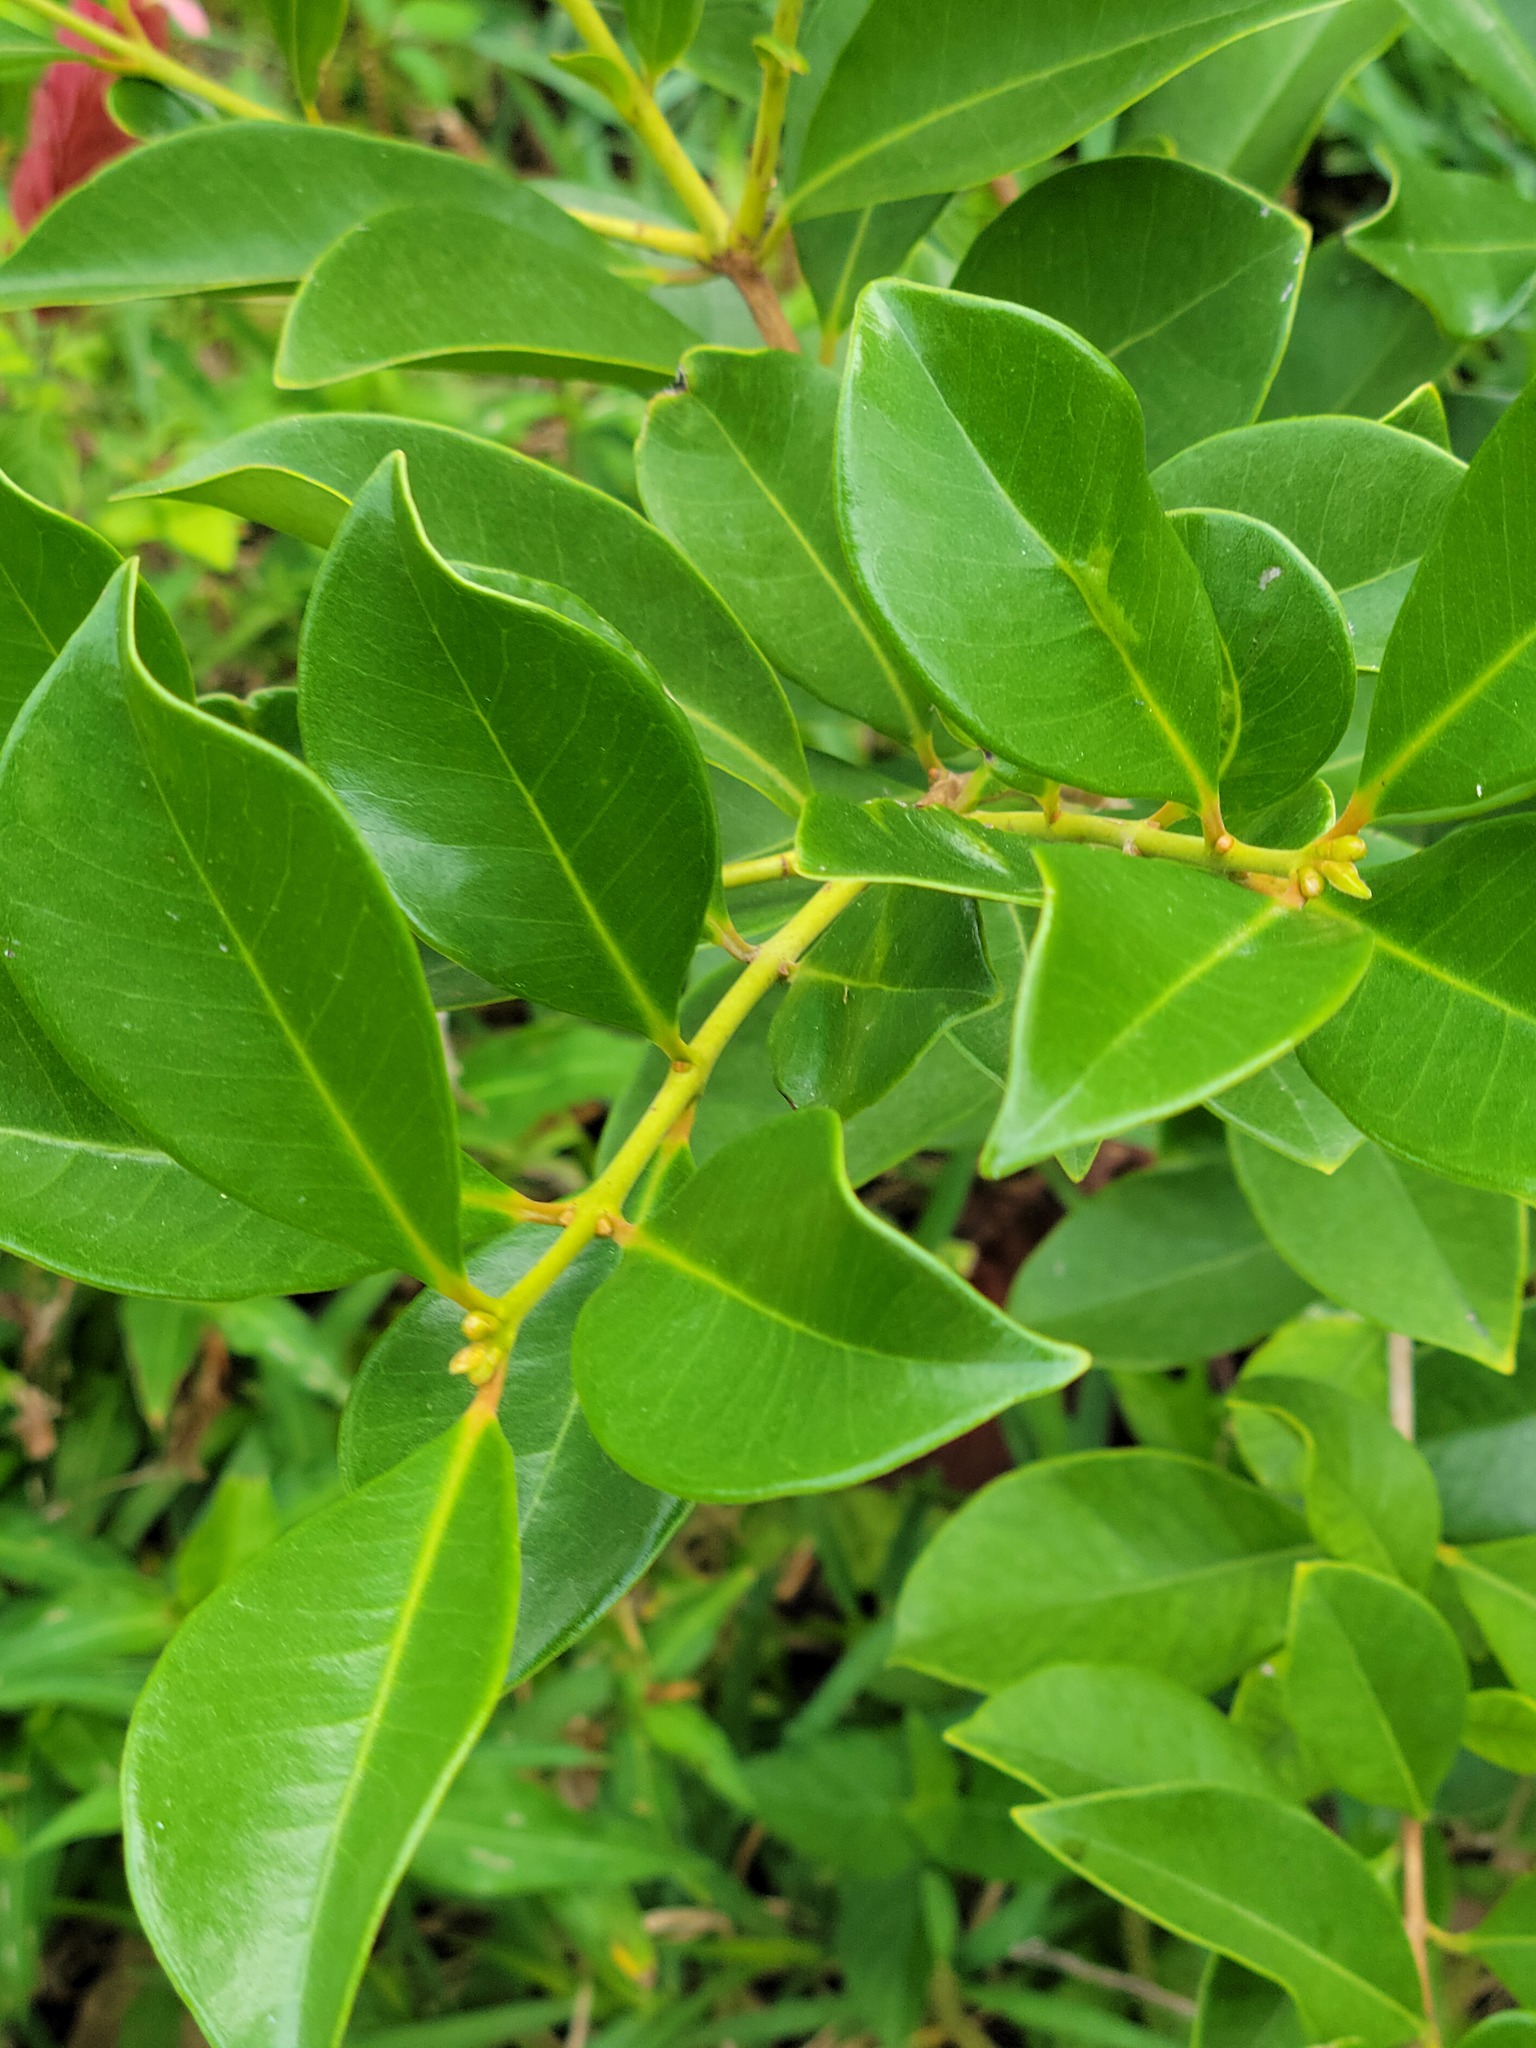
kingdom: Plantae
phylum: Tracheophyta
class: Magnoliopsida
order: Myrtales
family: Myrtaceae
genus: Psidium
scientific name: Psidium cattleianum
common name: Strawberry guava
